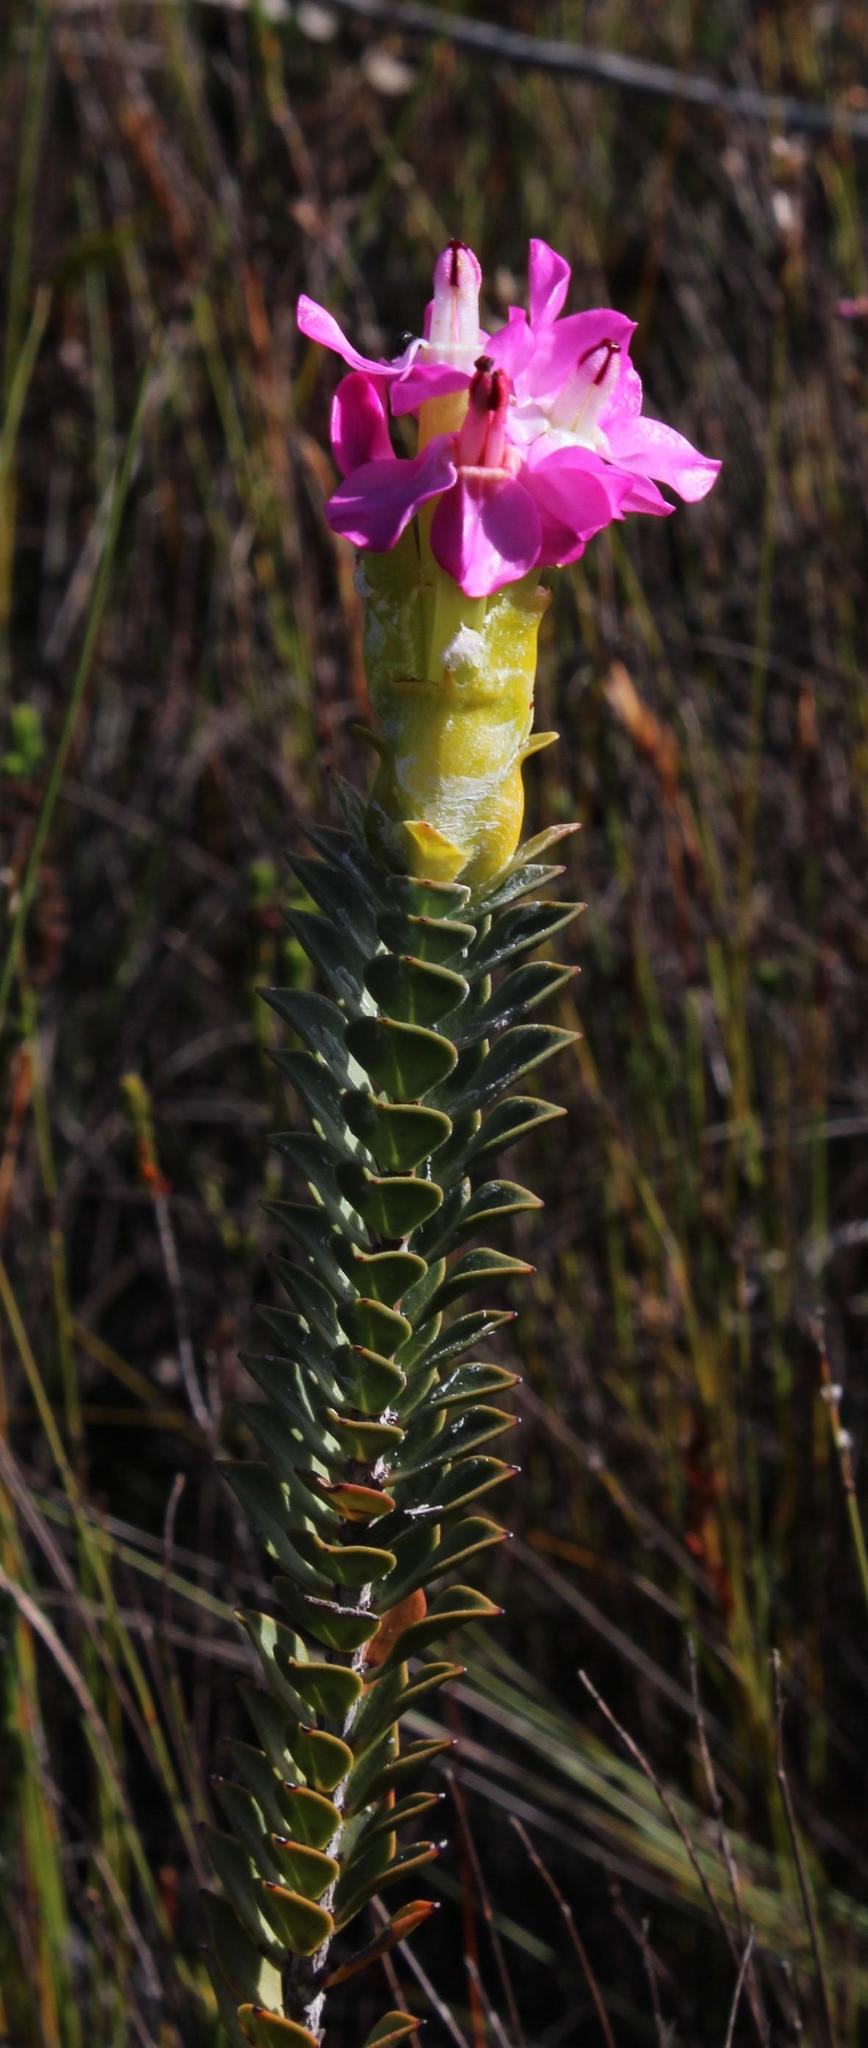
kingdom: Plantae
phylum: Tracheophyta
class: Magnoliopsida
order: Myrtales
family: Penaeaceae
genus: Saltera
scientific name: Saltera sarcocolla
